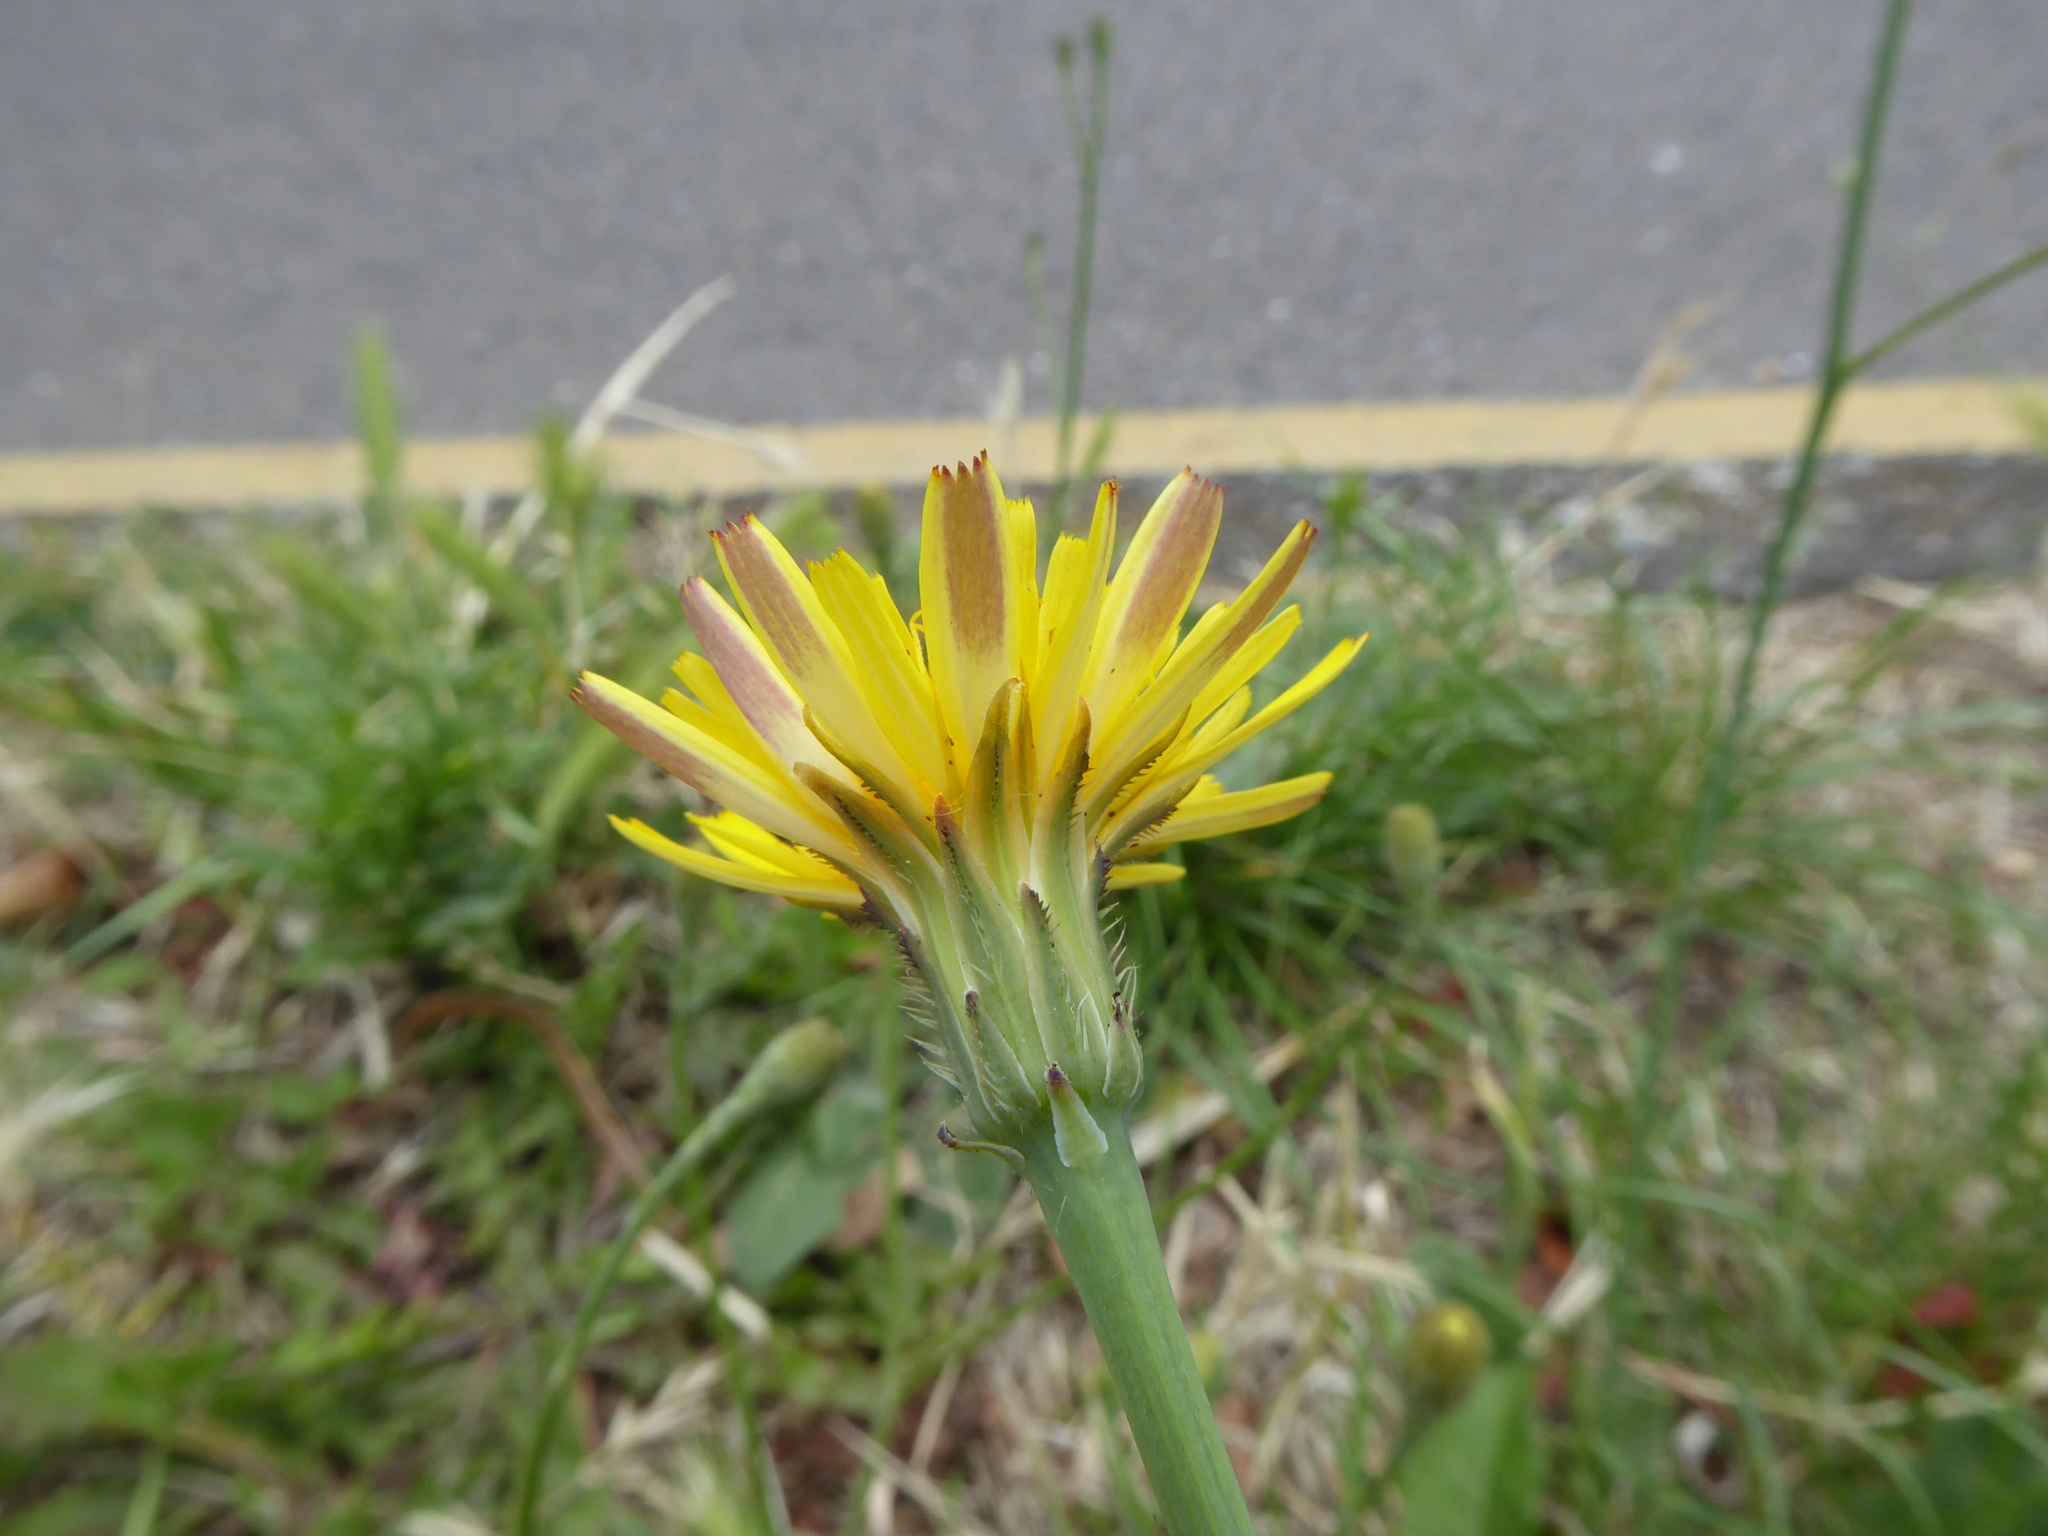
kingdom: Plantae
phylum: Tracheophyta
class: Magnoliopsida
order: Asterales
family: Asteraceae
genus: Hypochaeris
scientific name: Hypochaeris radicata
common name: Flatweed
